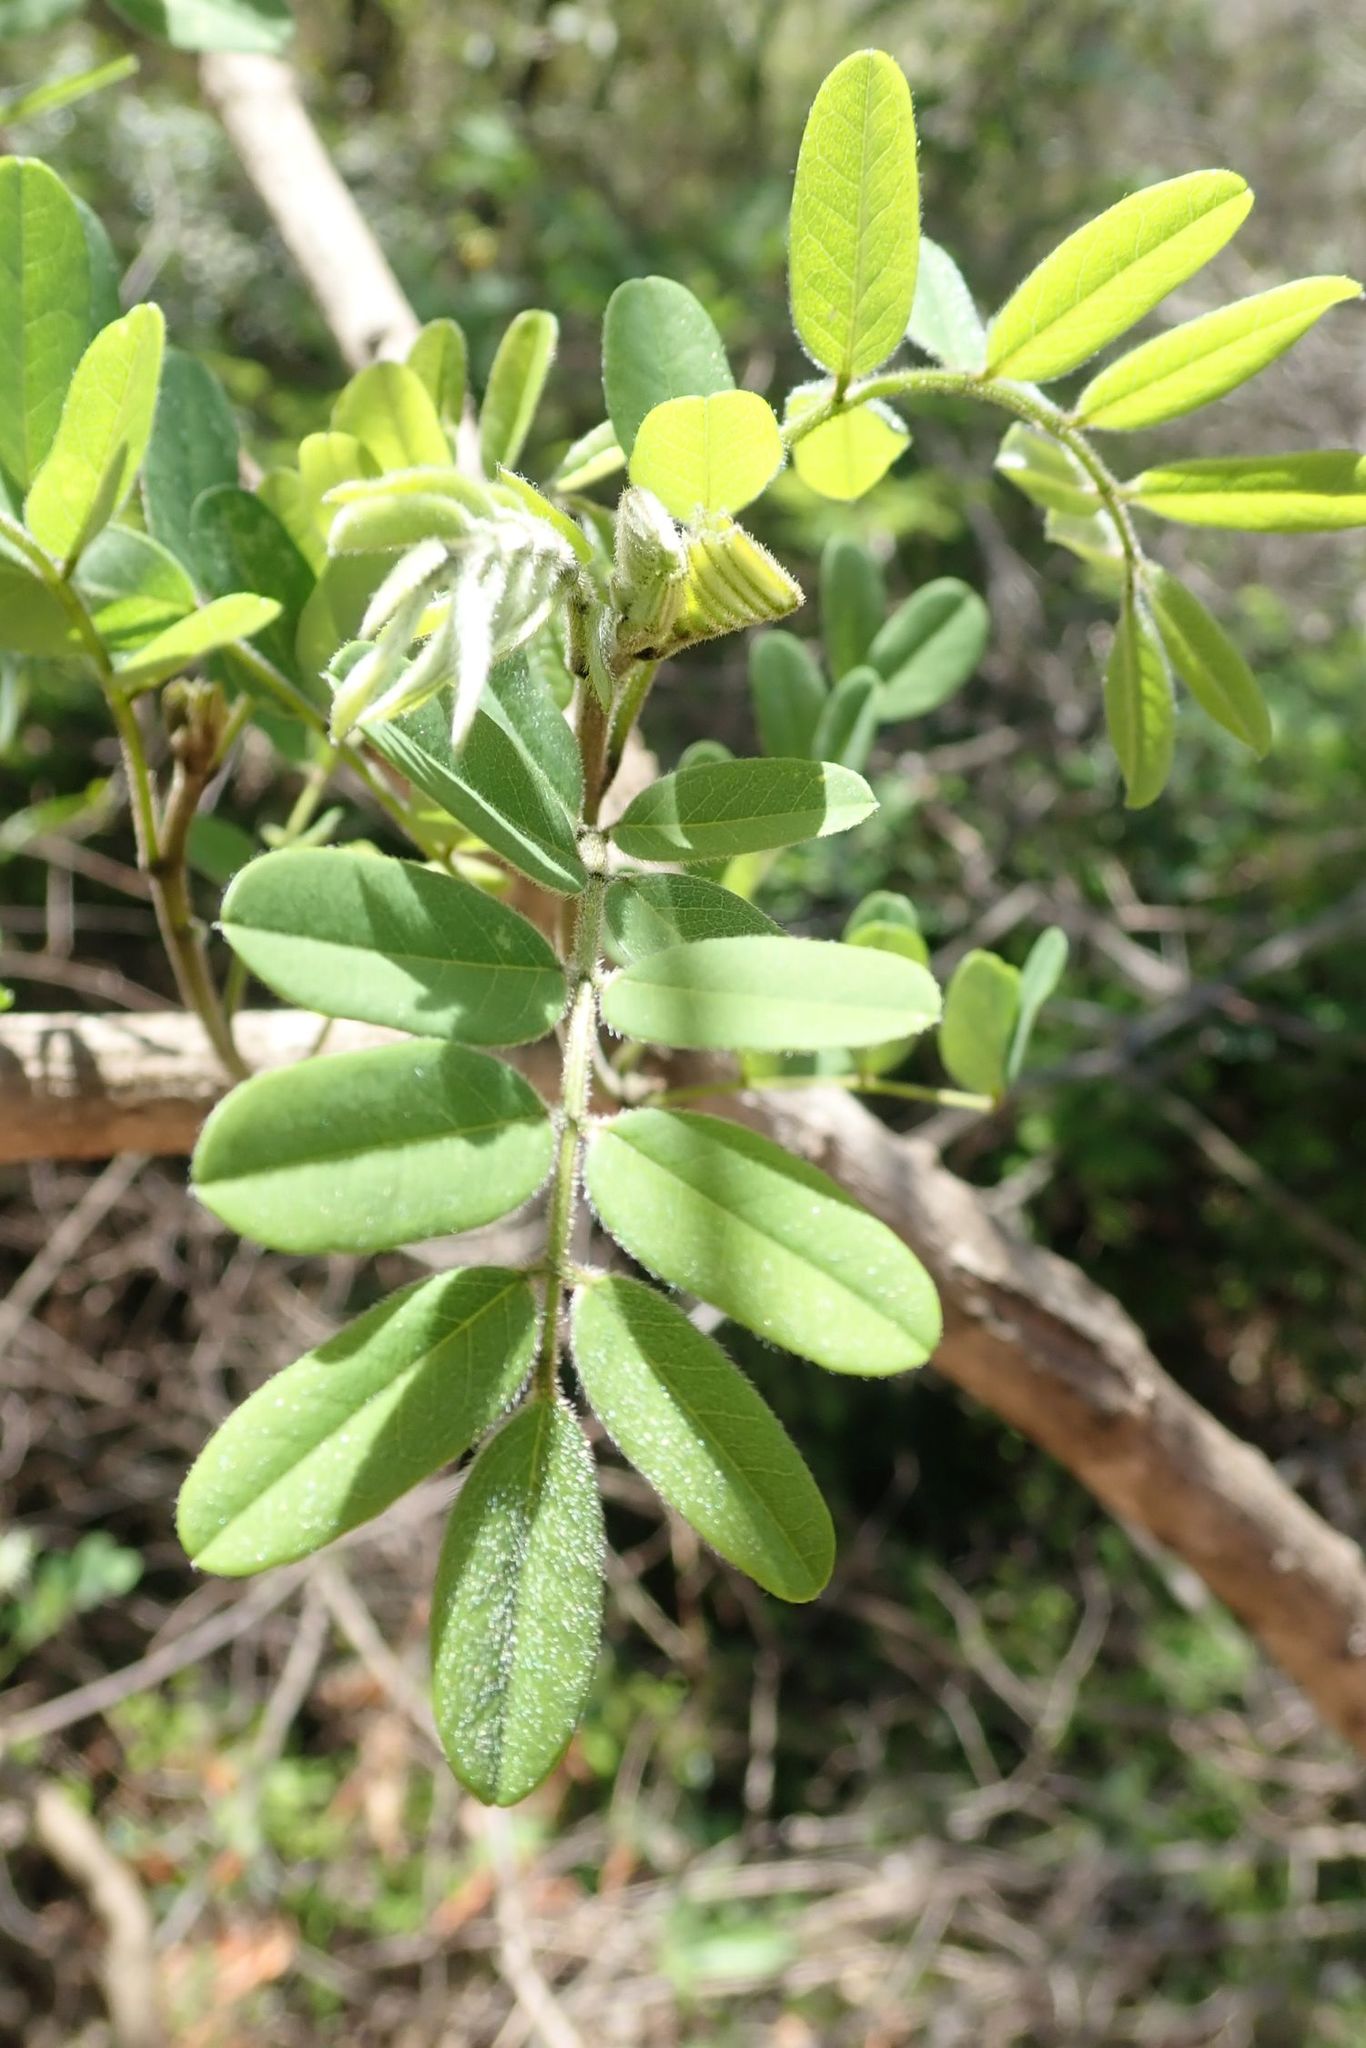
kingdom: Plantae
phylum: Tracheophyta
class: Magnoliopsida
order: Fabales
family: Fabaceae
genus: Calpurnia
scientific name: Calpurnia aurea
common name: Wild laburnum
